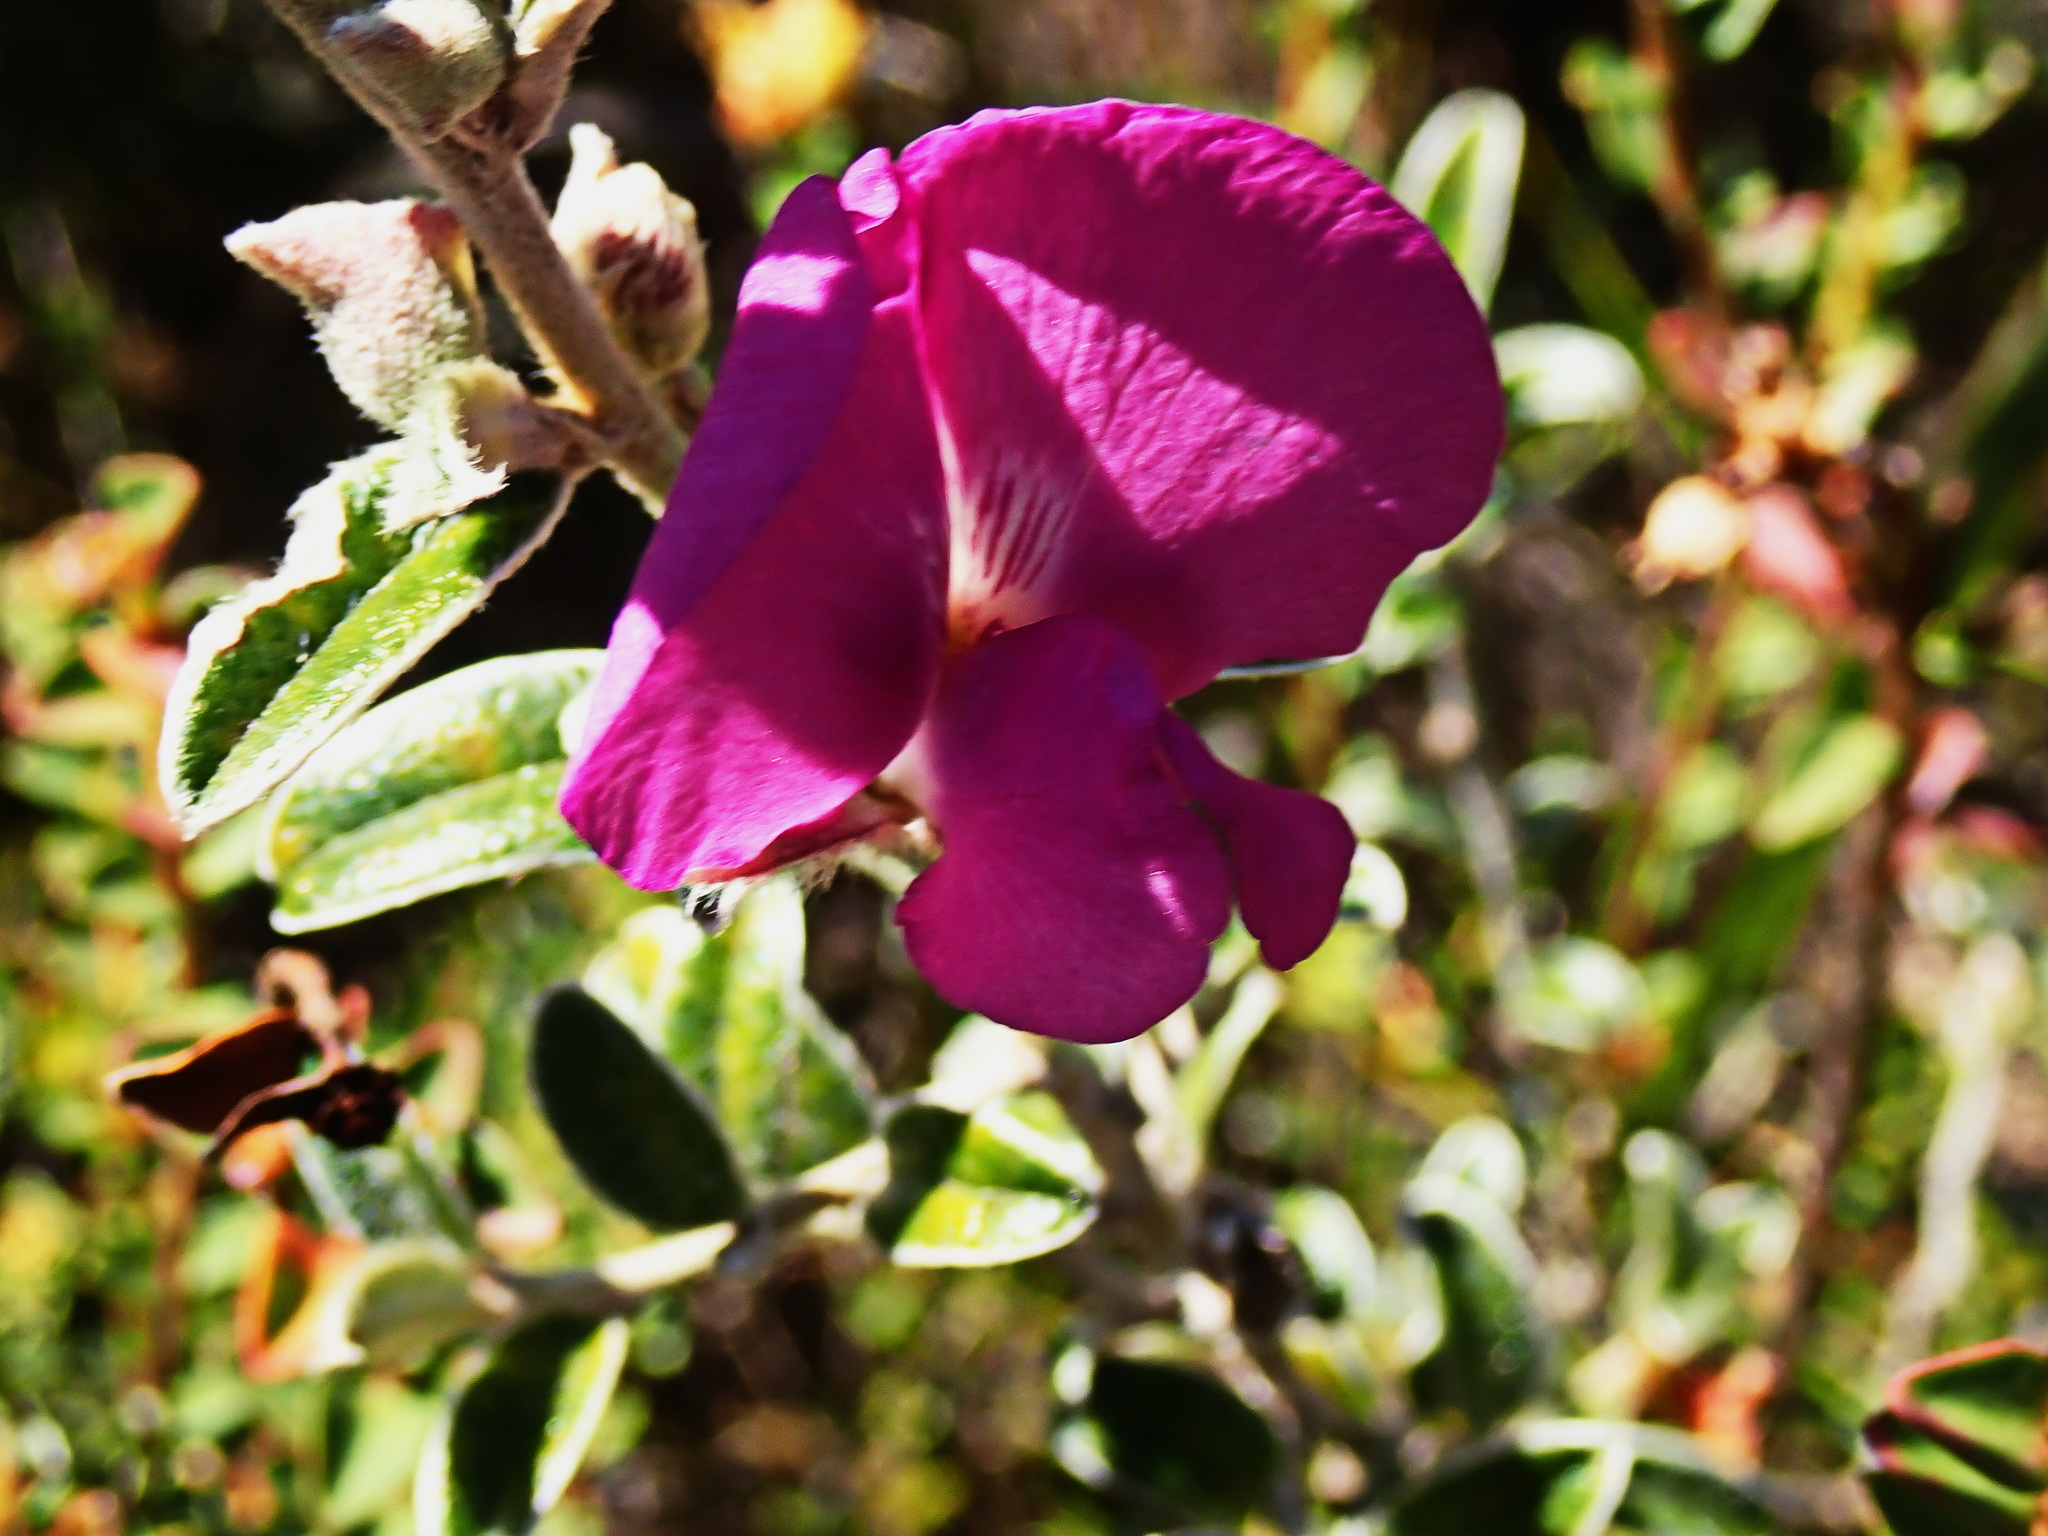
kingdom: Plantae
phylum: Tracheophyta
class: Magnoliopsida
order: Fabales
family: Fabaceae
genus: Podalyria
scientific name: Podalyria burchellii
